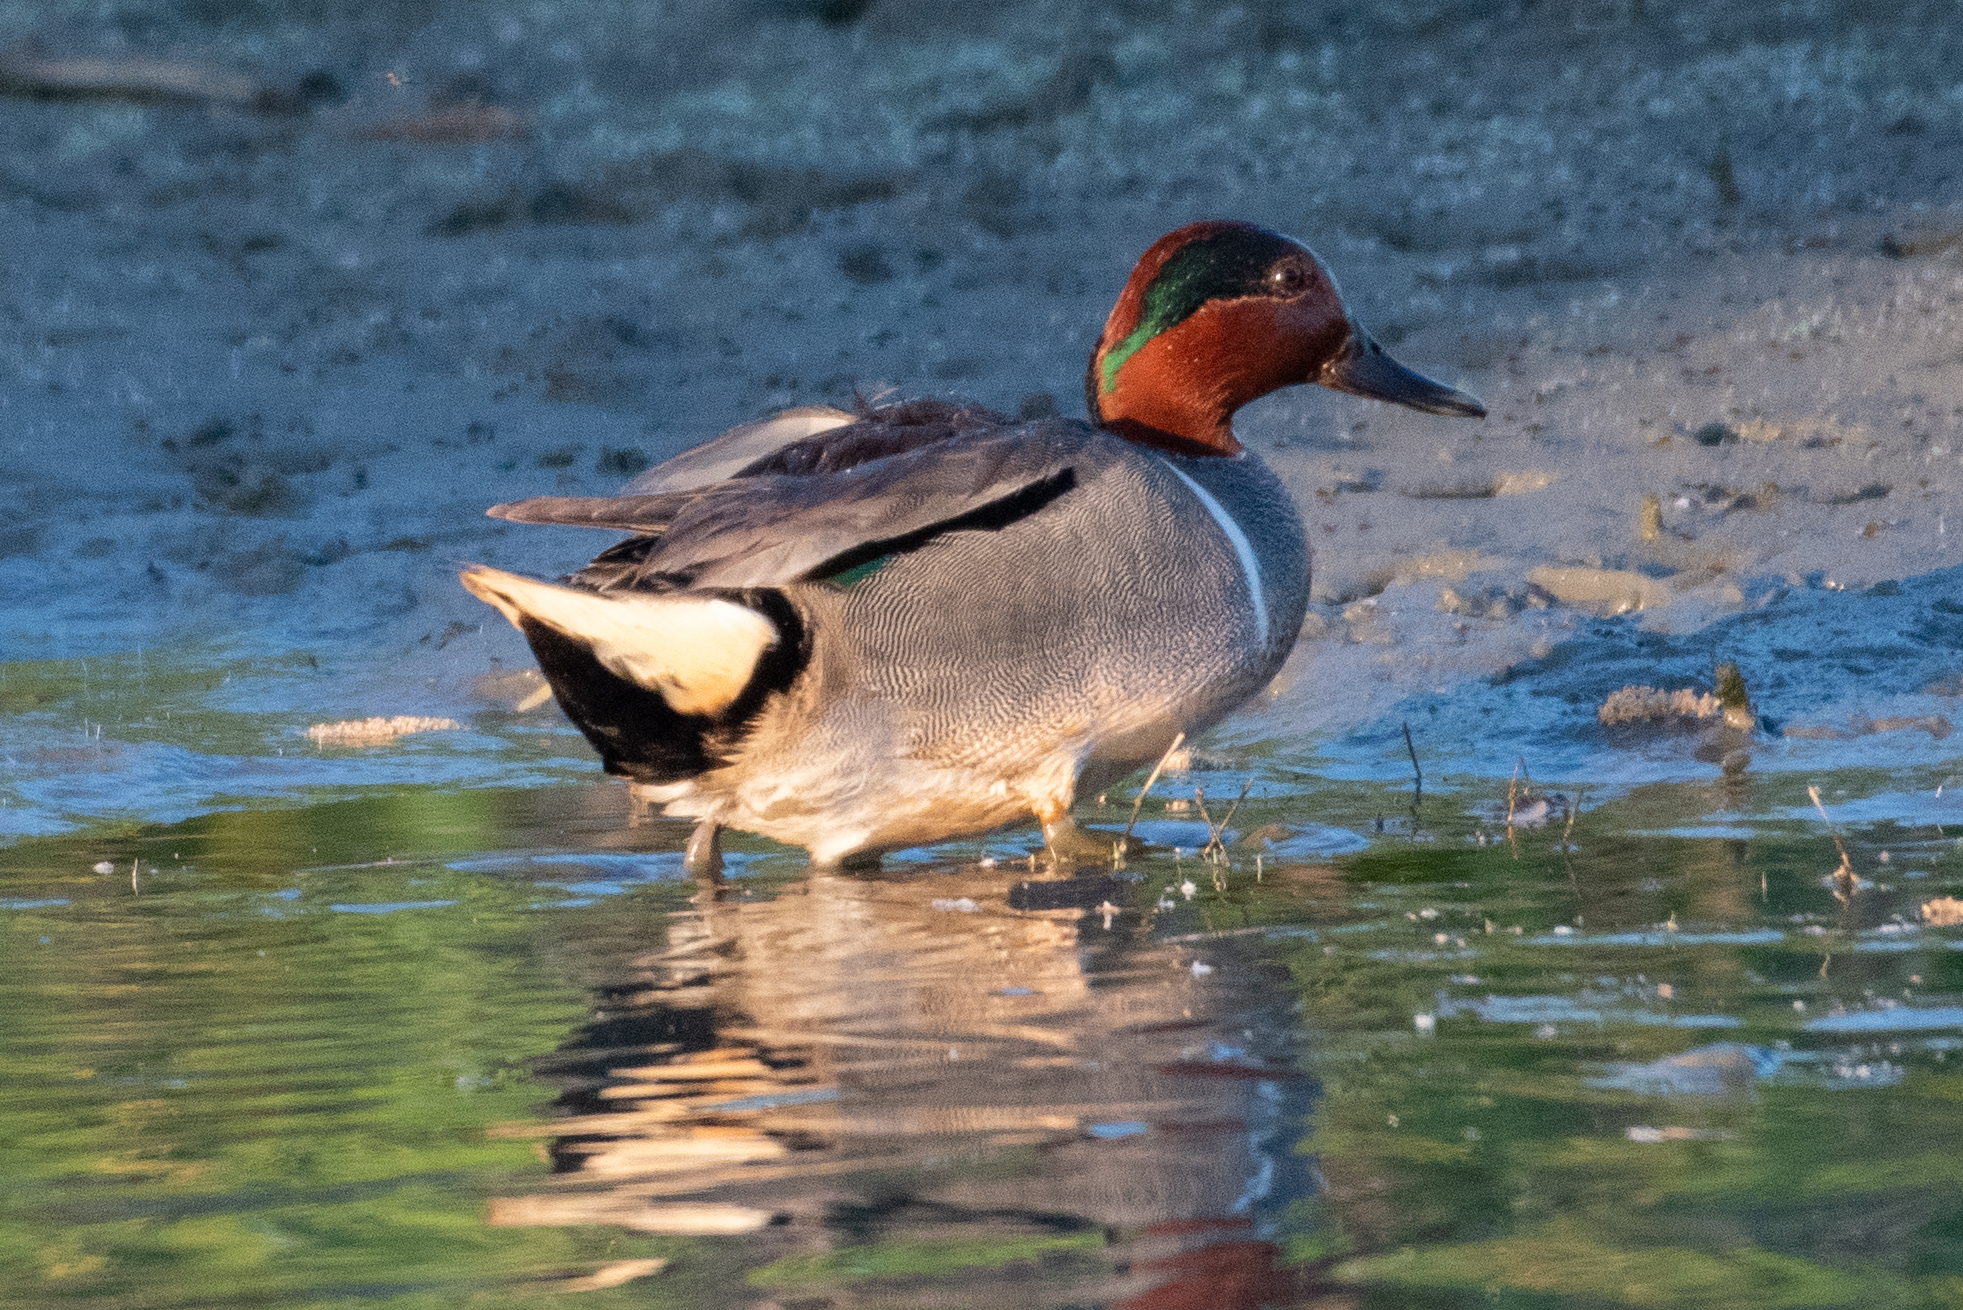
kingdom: Animalia
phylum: Chordata
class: Aves
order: Anseriformes
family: Anatidae
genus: Anas
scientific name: Anas crecca
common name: Eurasian teal
